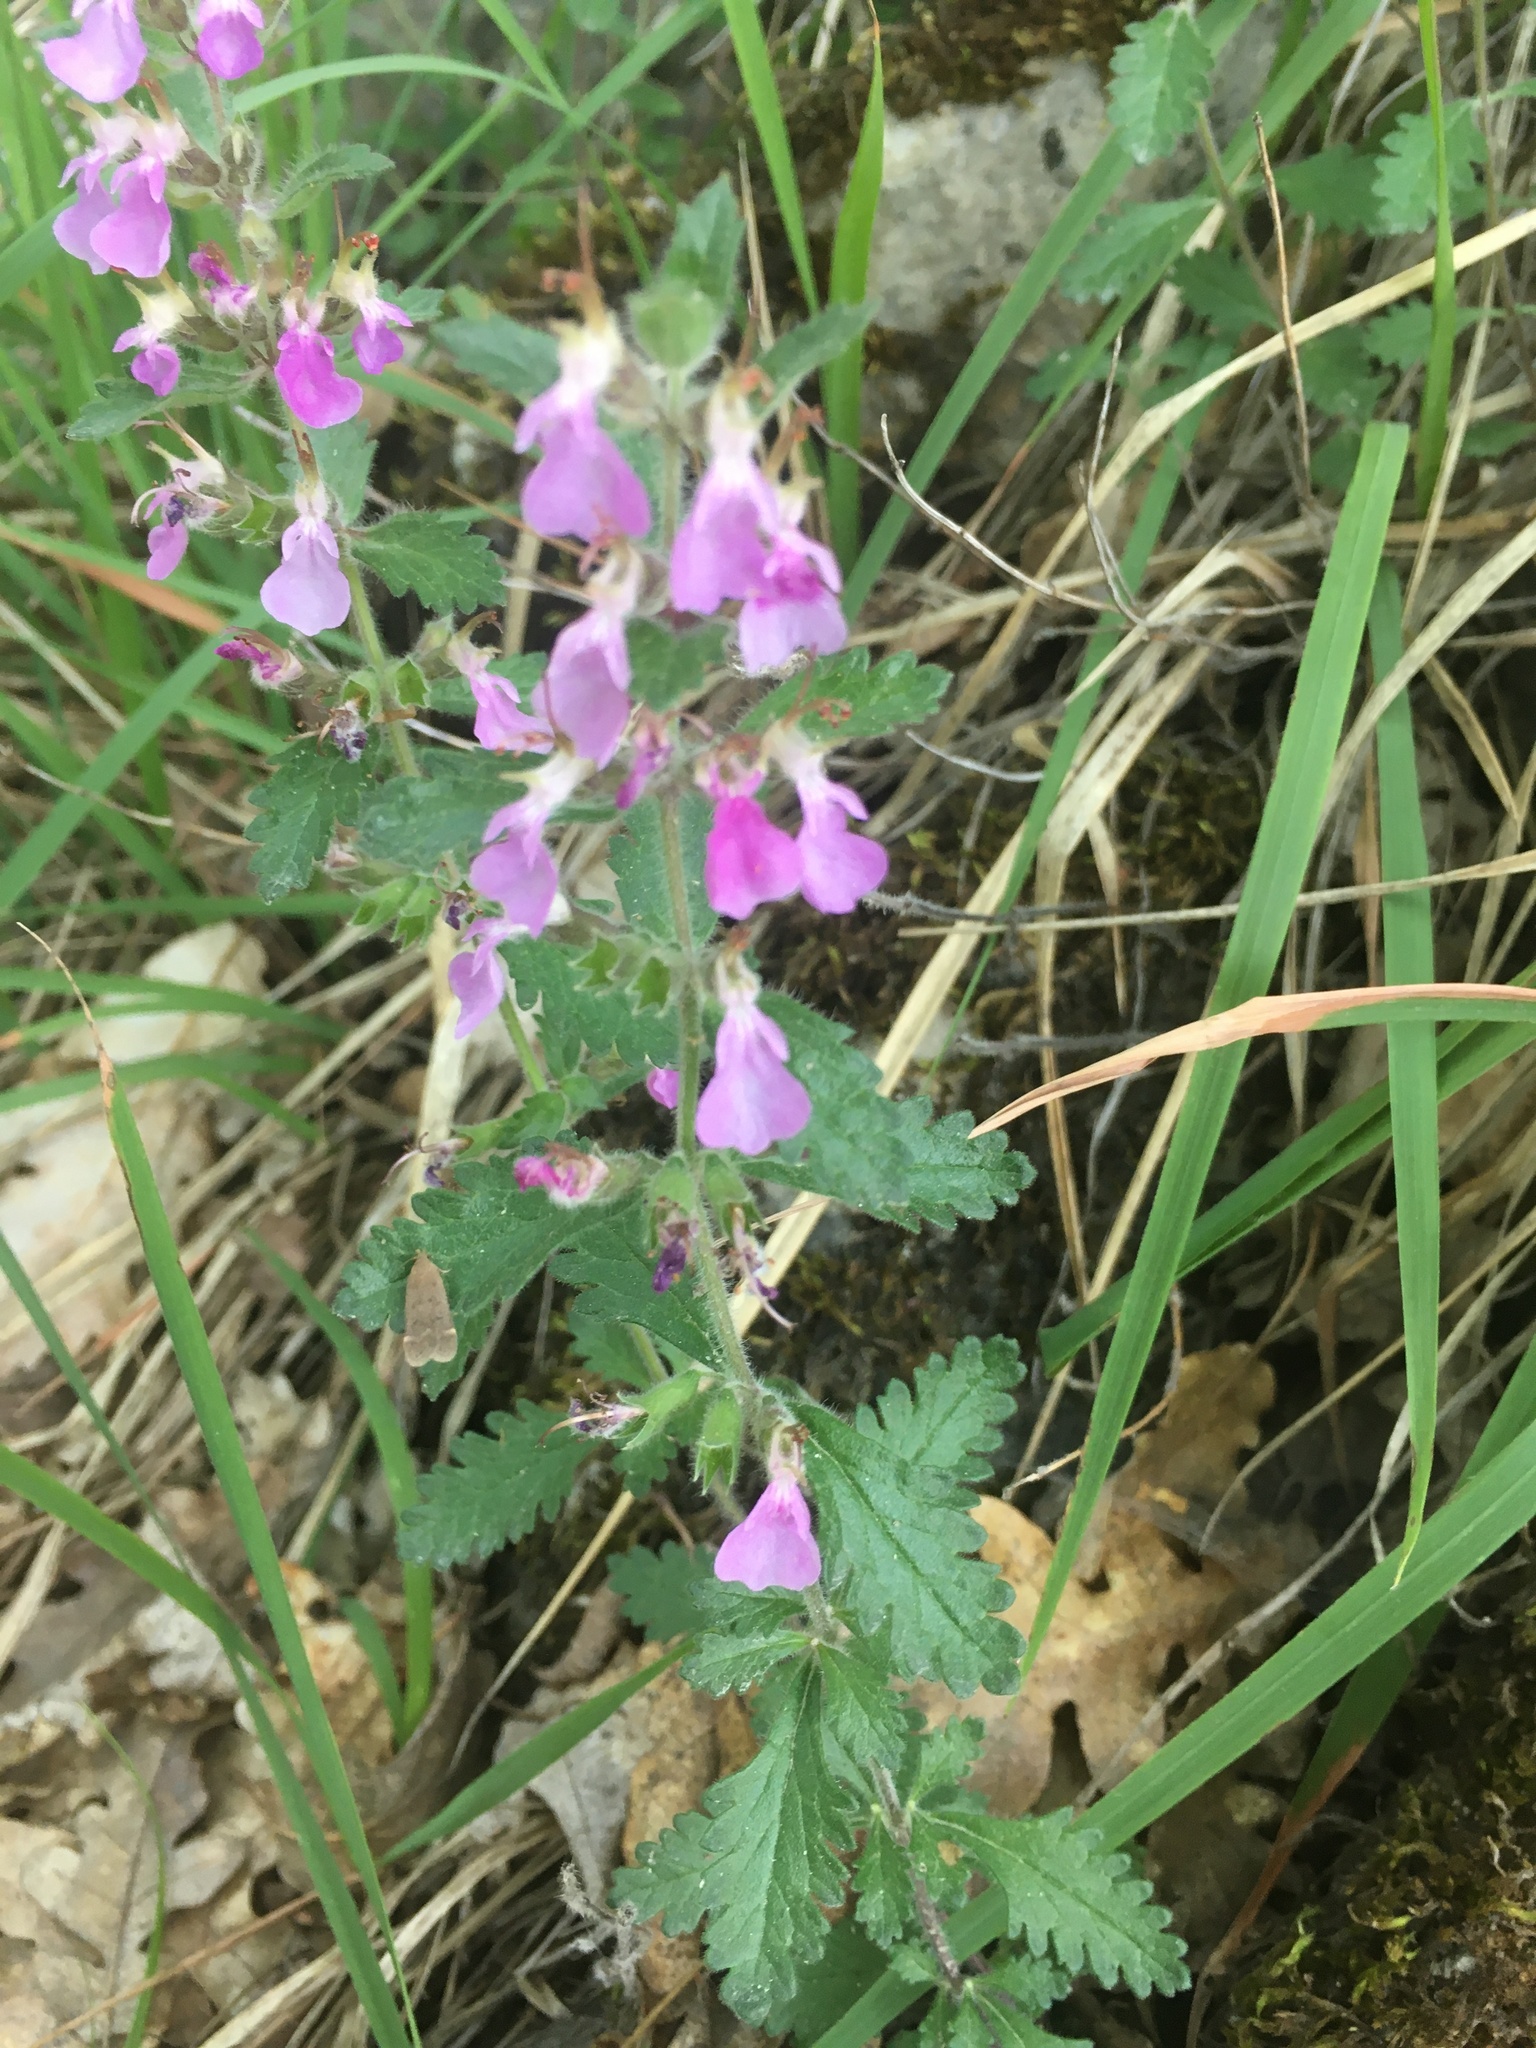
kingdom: Plantae
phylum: Tracheophyta
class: Magnoliopsida
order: Lamiales
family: Lamiaceae
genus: Teucrium
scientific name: Teucrium chamaedrys
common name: Wall germander
